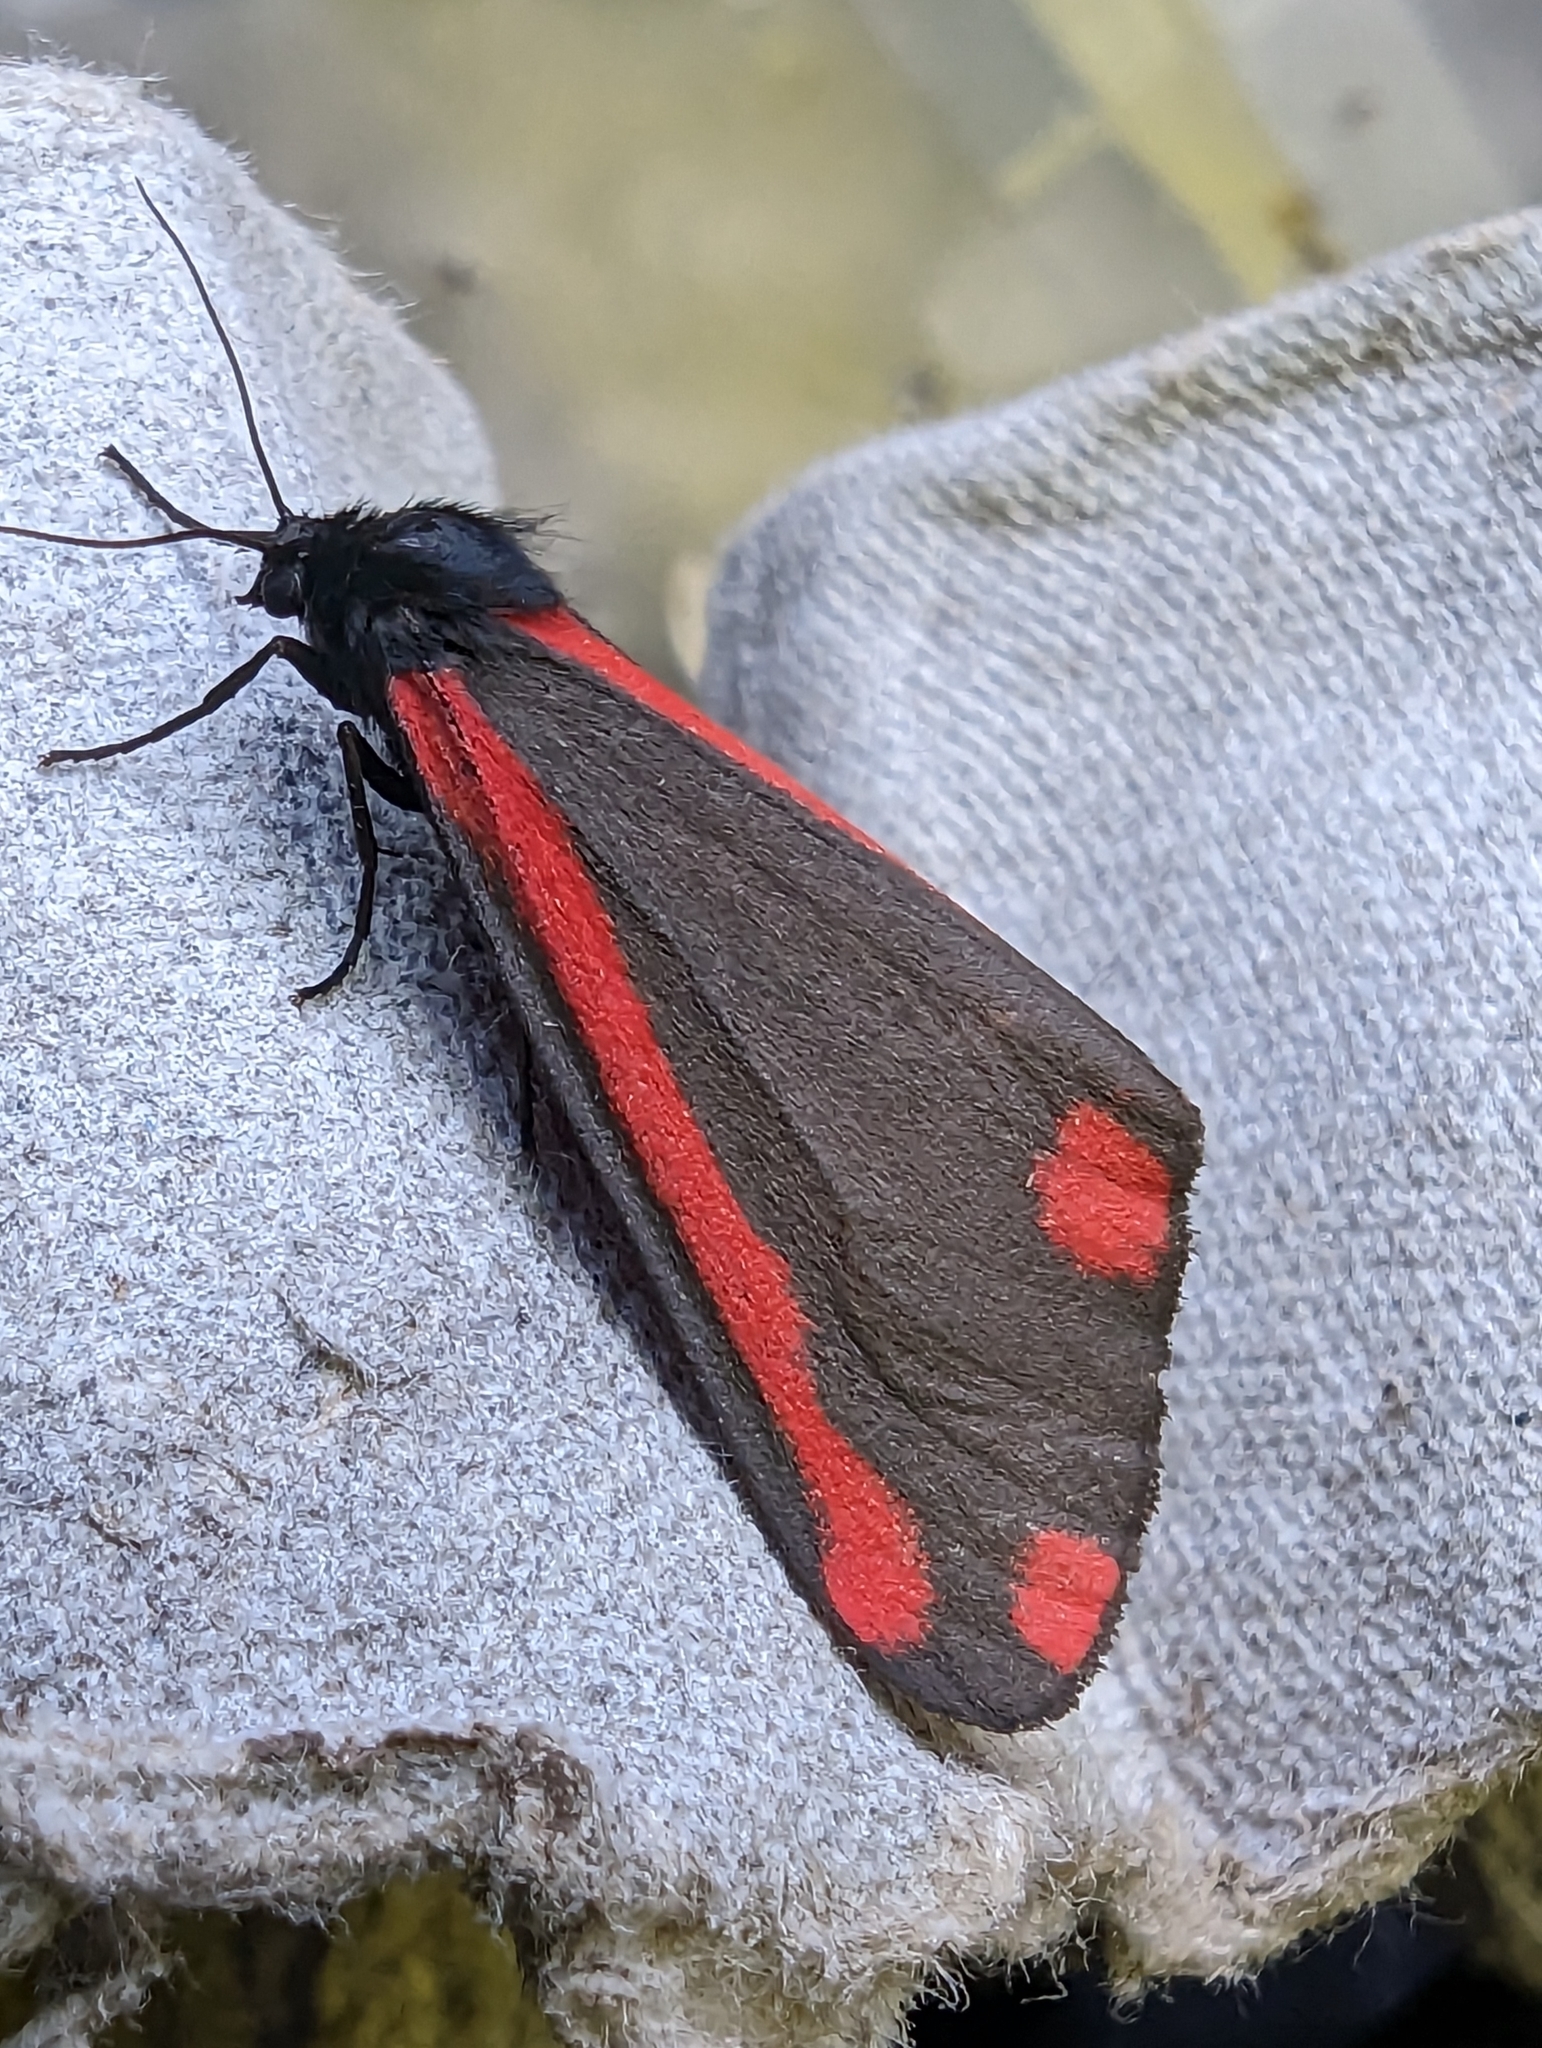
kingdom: Animalia
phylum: Arthropoda
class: Insecta
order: Lepidoptera
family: Erebidae
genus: Tyria
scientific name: Tyria jacobaeae
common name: Cinnabar
